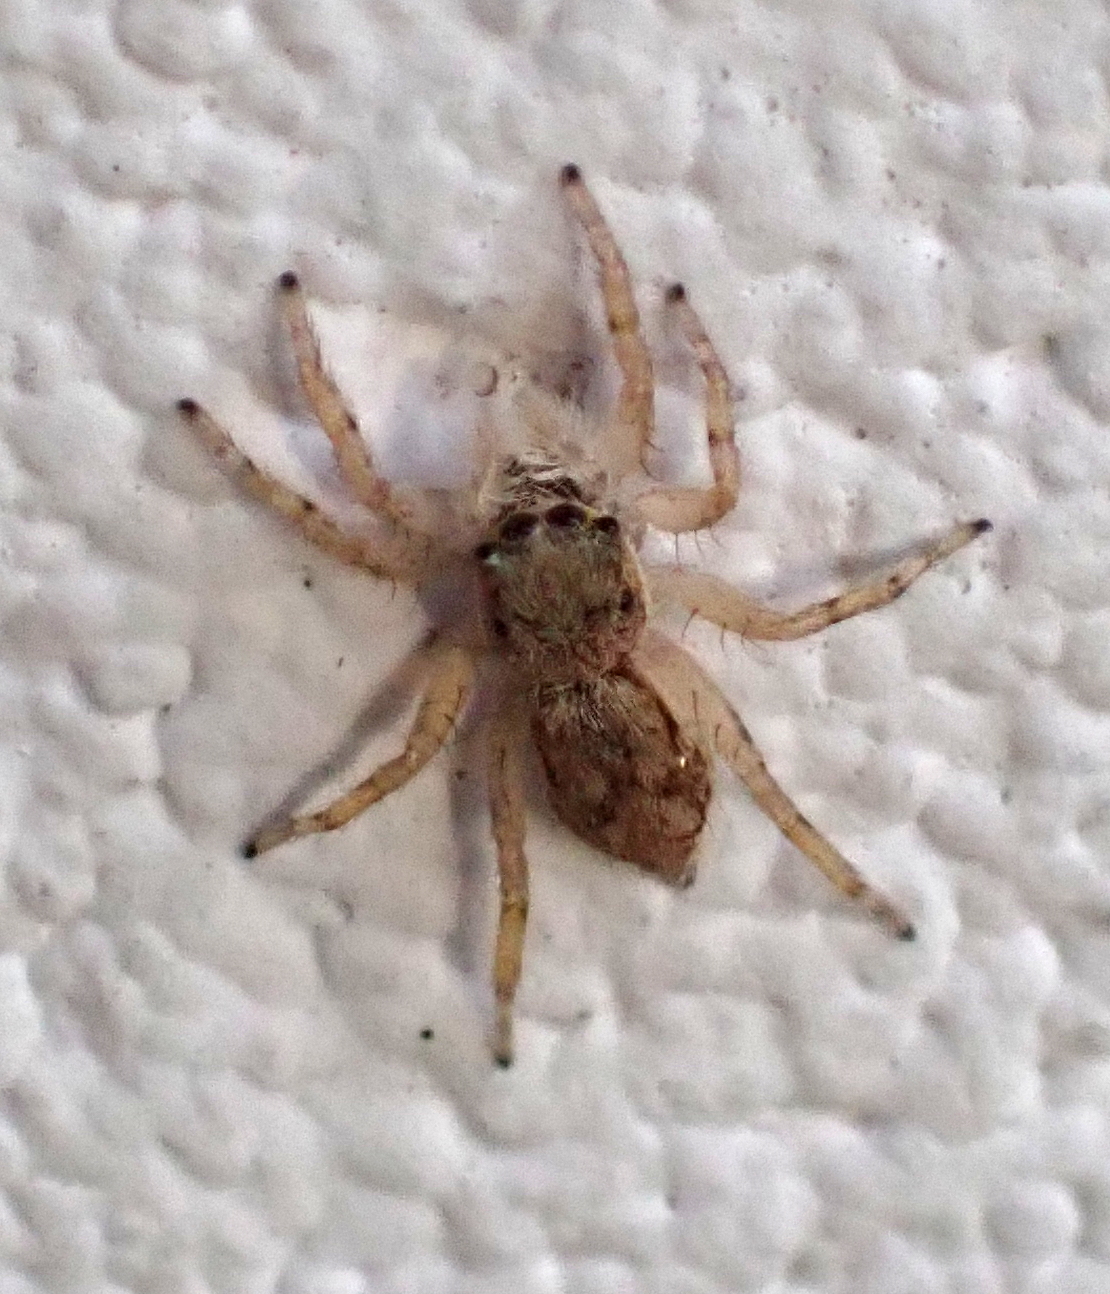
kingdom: Animalia
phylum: Arthropoda
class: Arachnida
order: Araneae
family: Salticidae
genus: Menemerus
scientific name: Menemerus bivittatus
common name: Gray wall jumper
